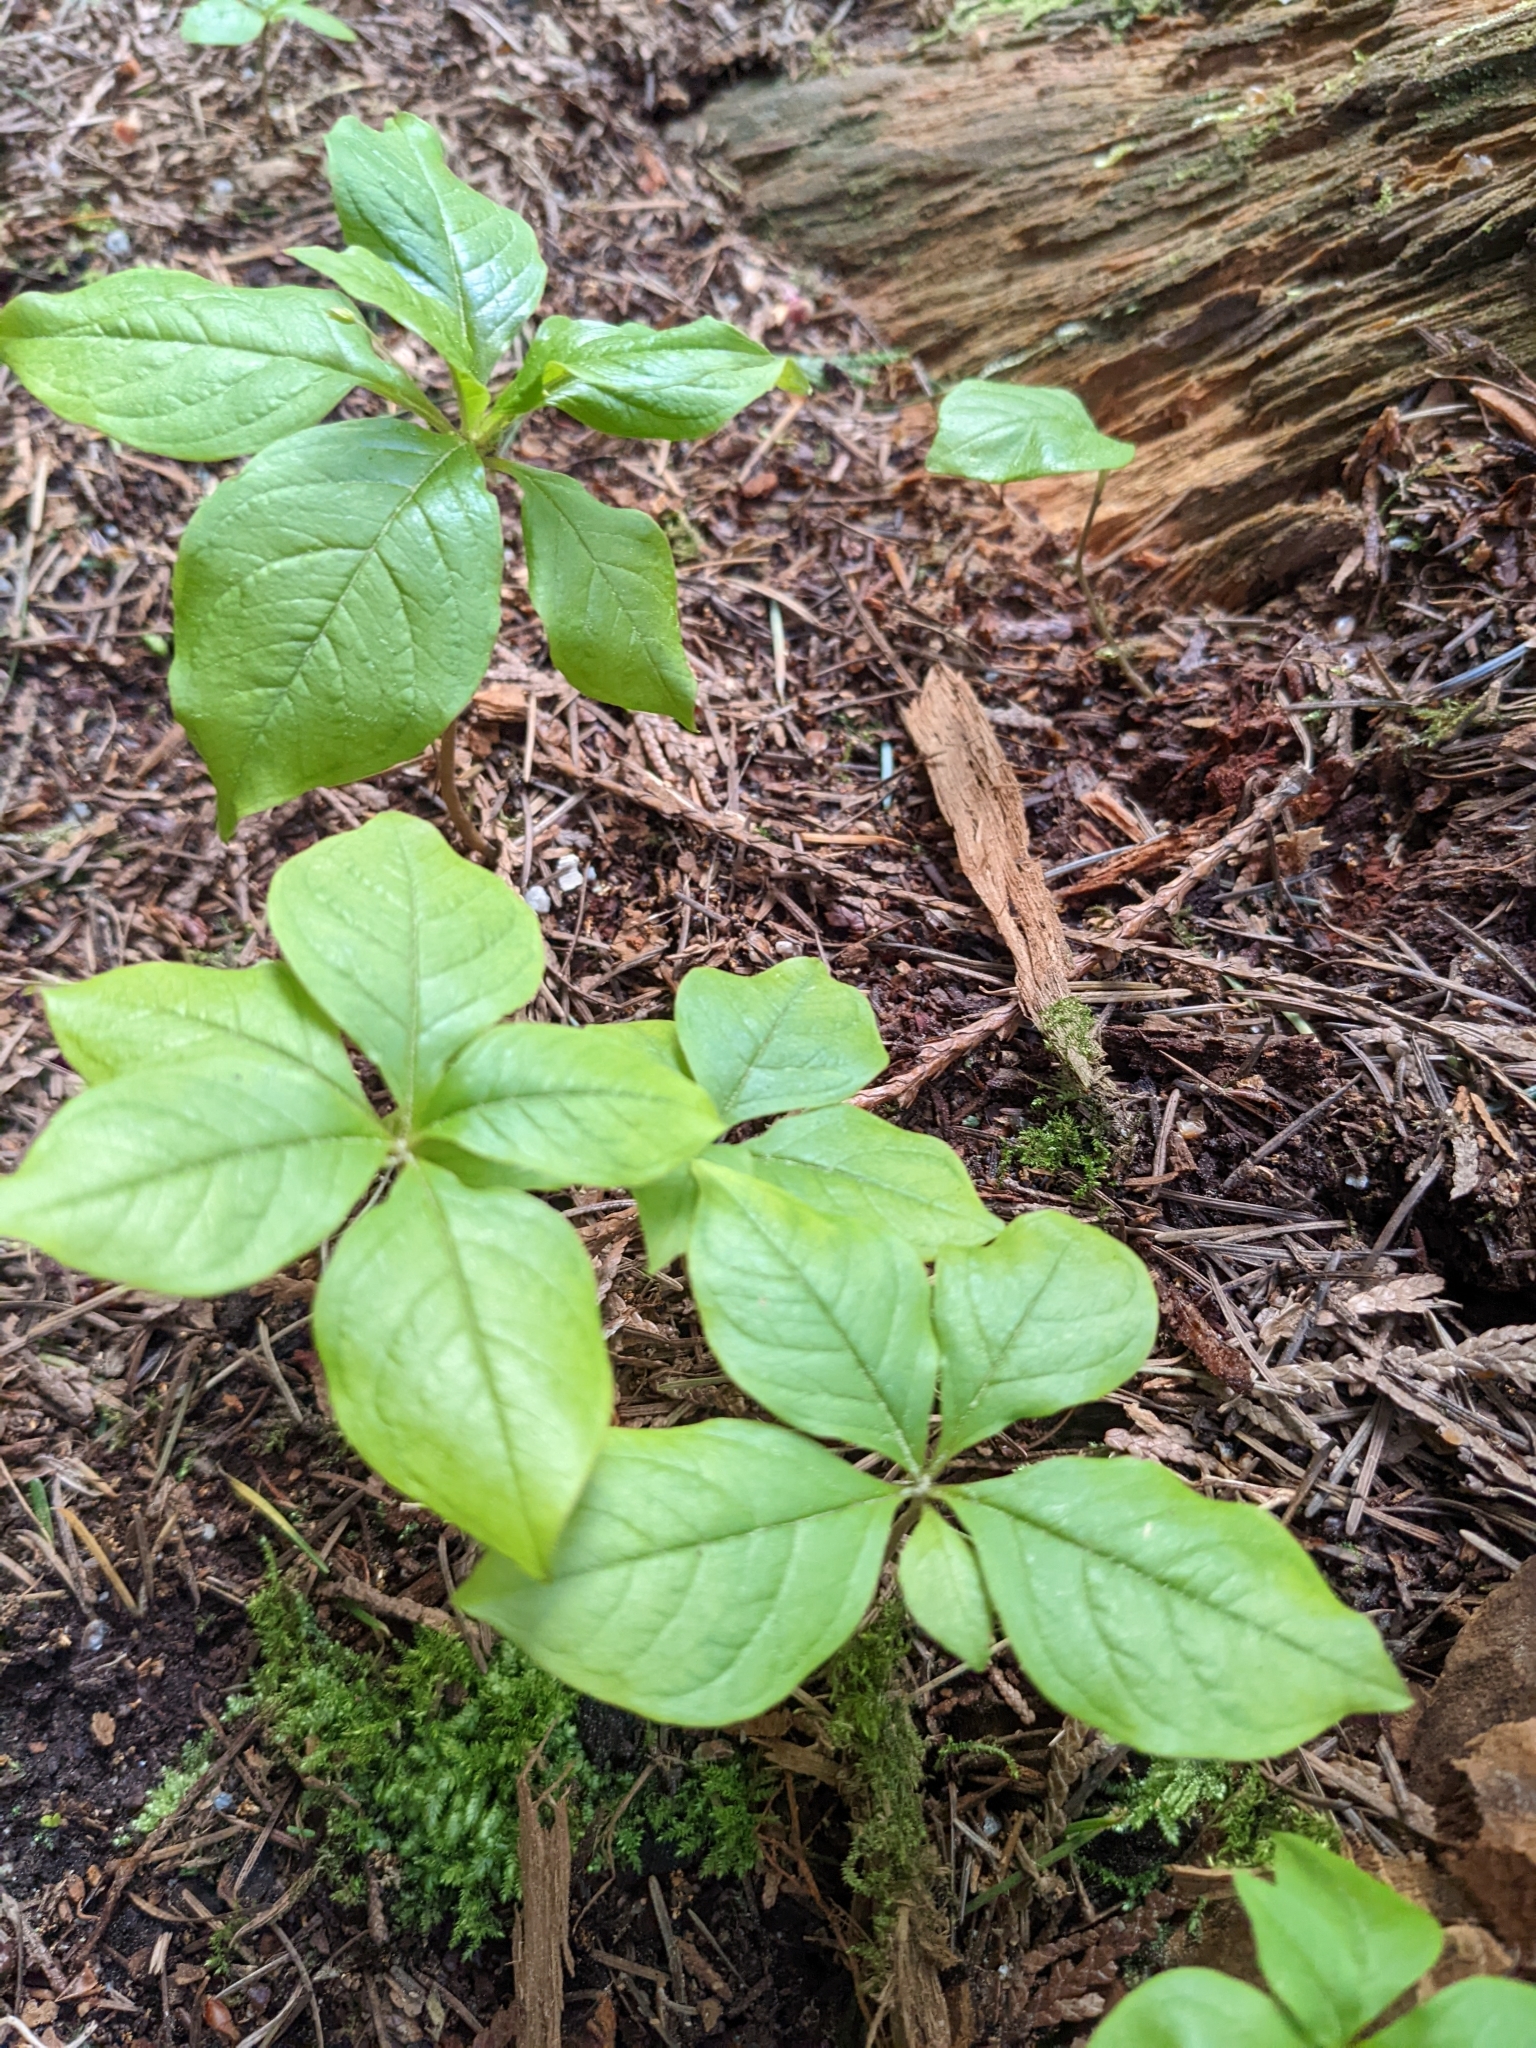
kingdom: Plantae
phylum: Tracheophyta
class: Magnoliopsida
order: Ericales
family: Primulaceae
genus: Lysimachia
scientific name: Lysimachia latifolia
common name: Pacific starflower
